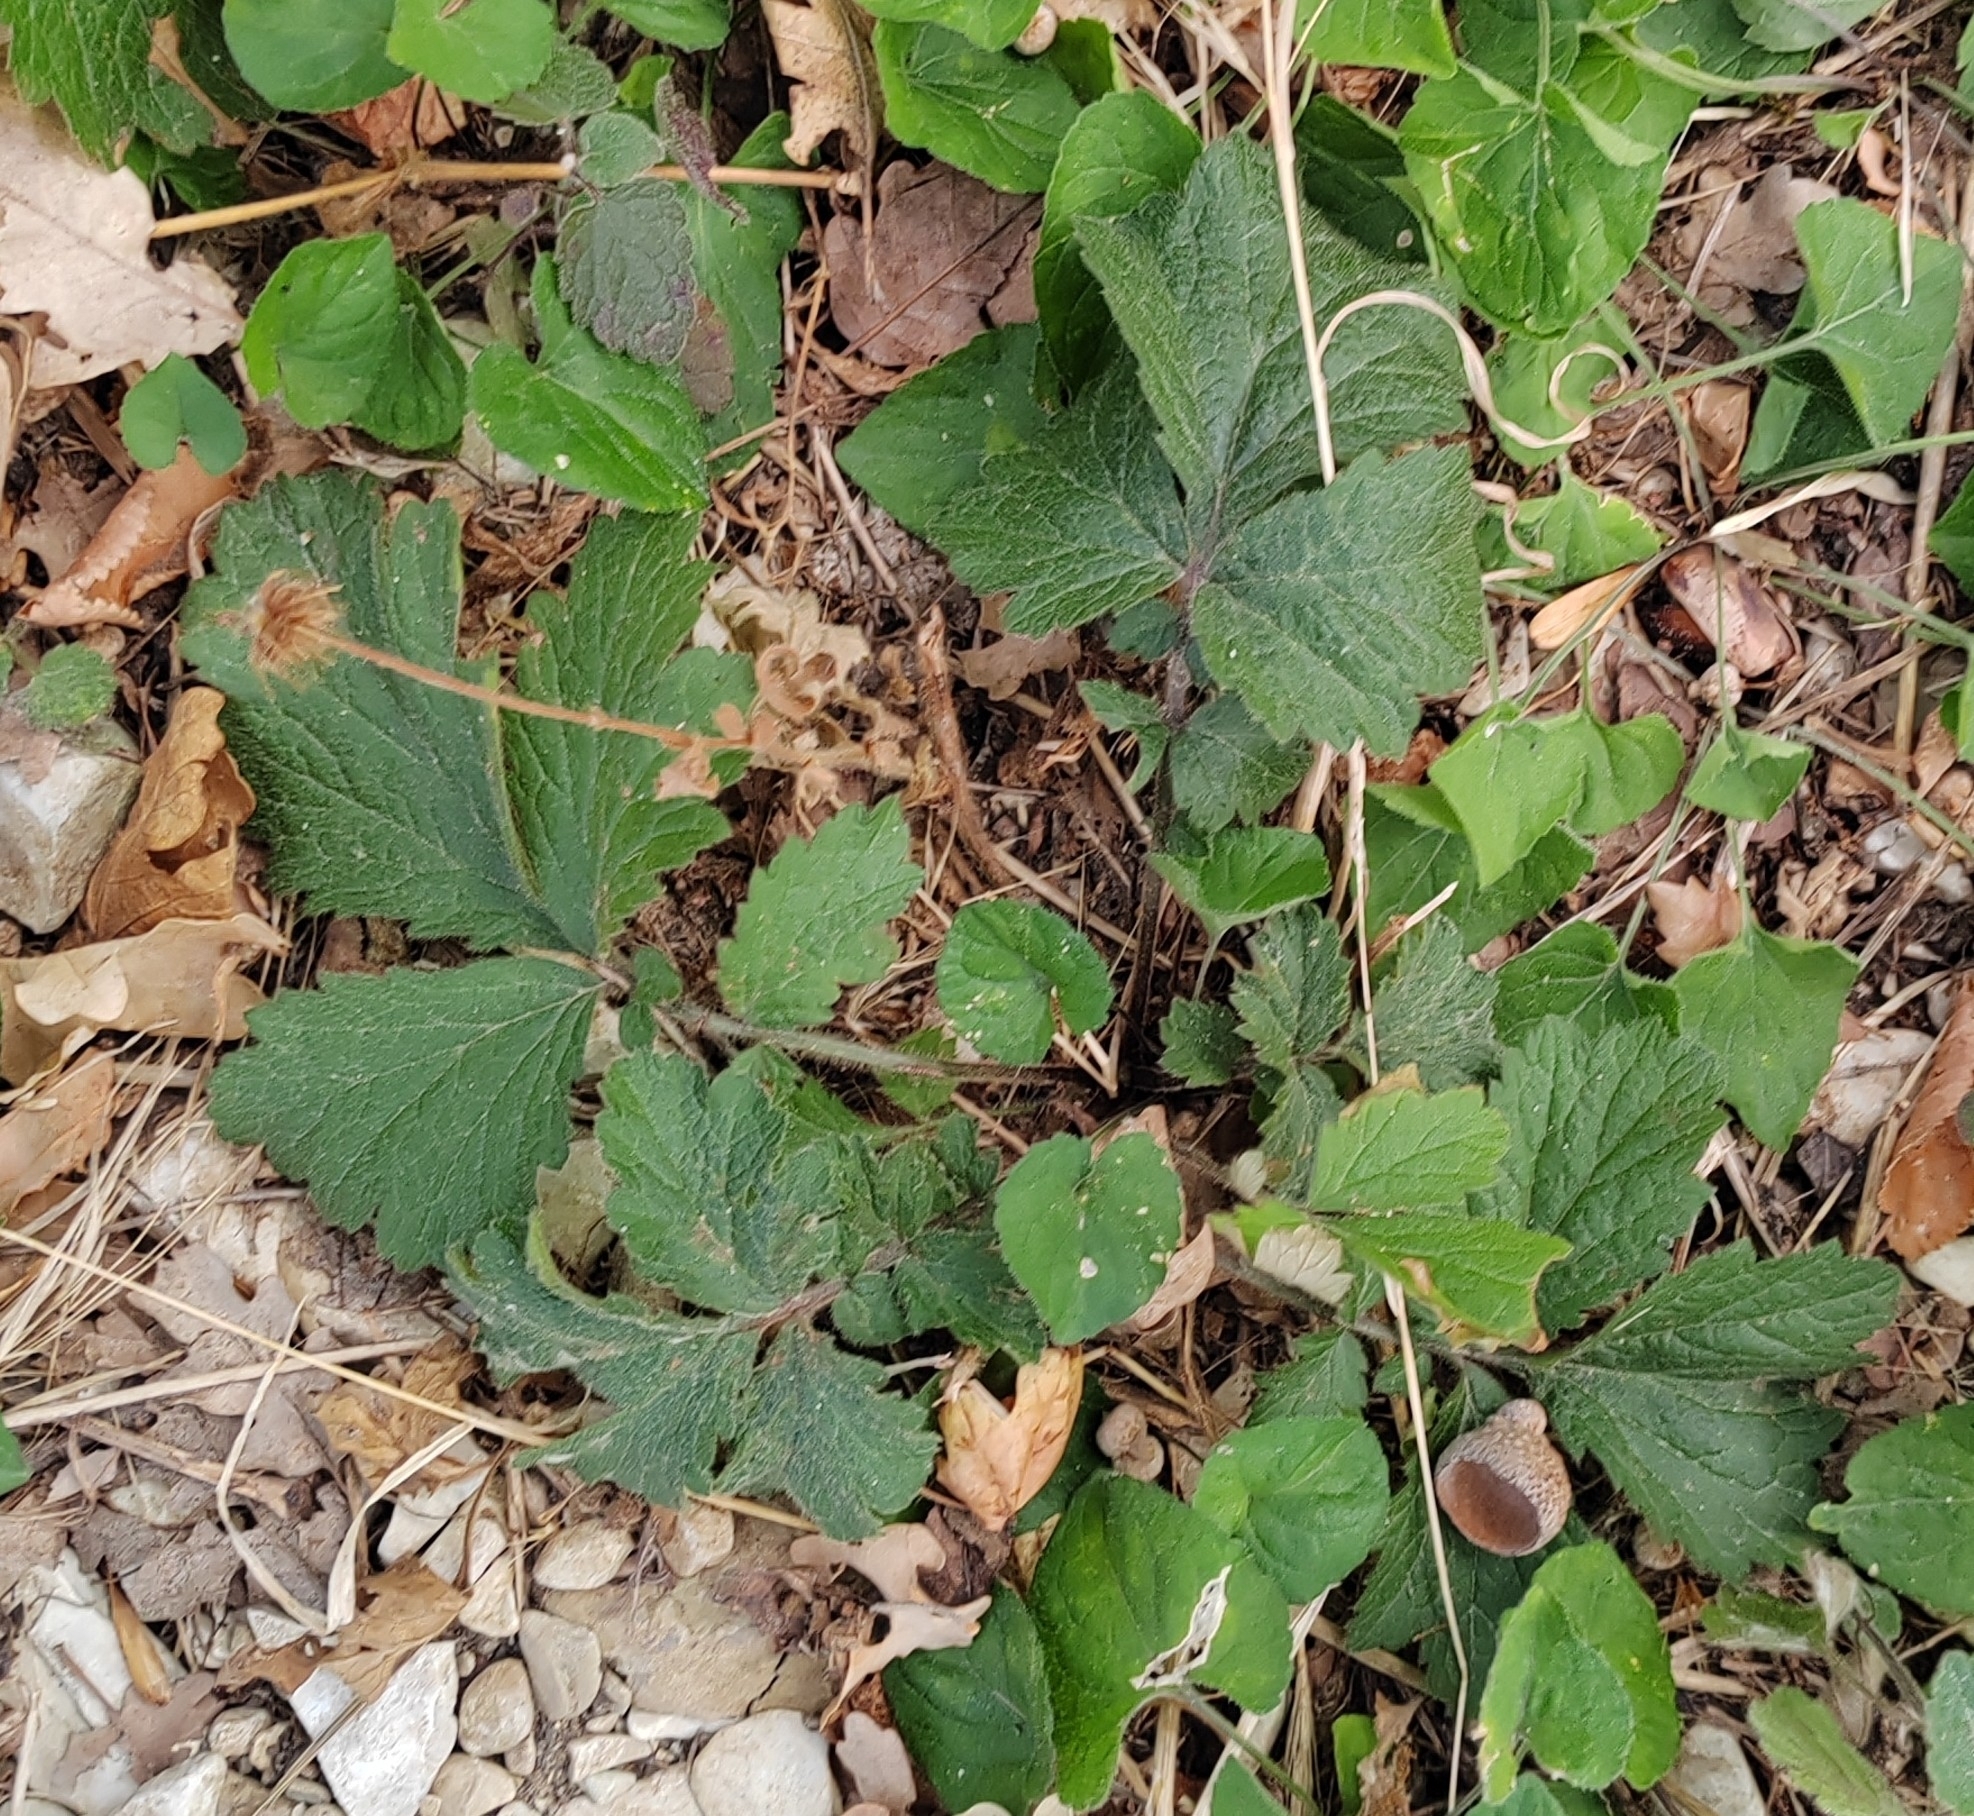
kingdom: Plantae
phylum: Tracheophyta
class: Magnoliopsida
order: Rosales
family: Rosaceae
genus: Geum
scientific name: Geum urbanum
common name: Wood avens
